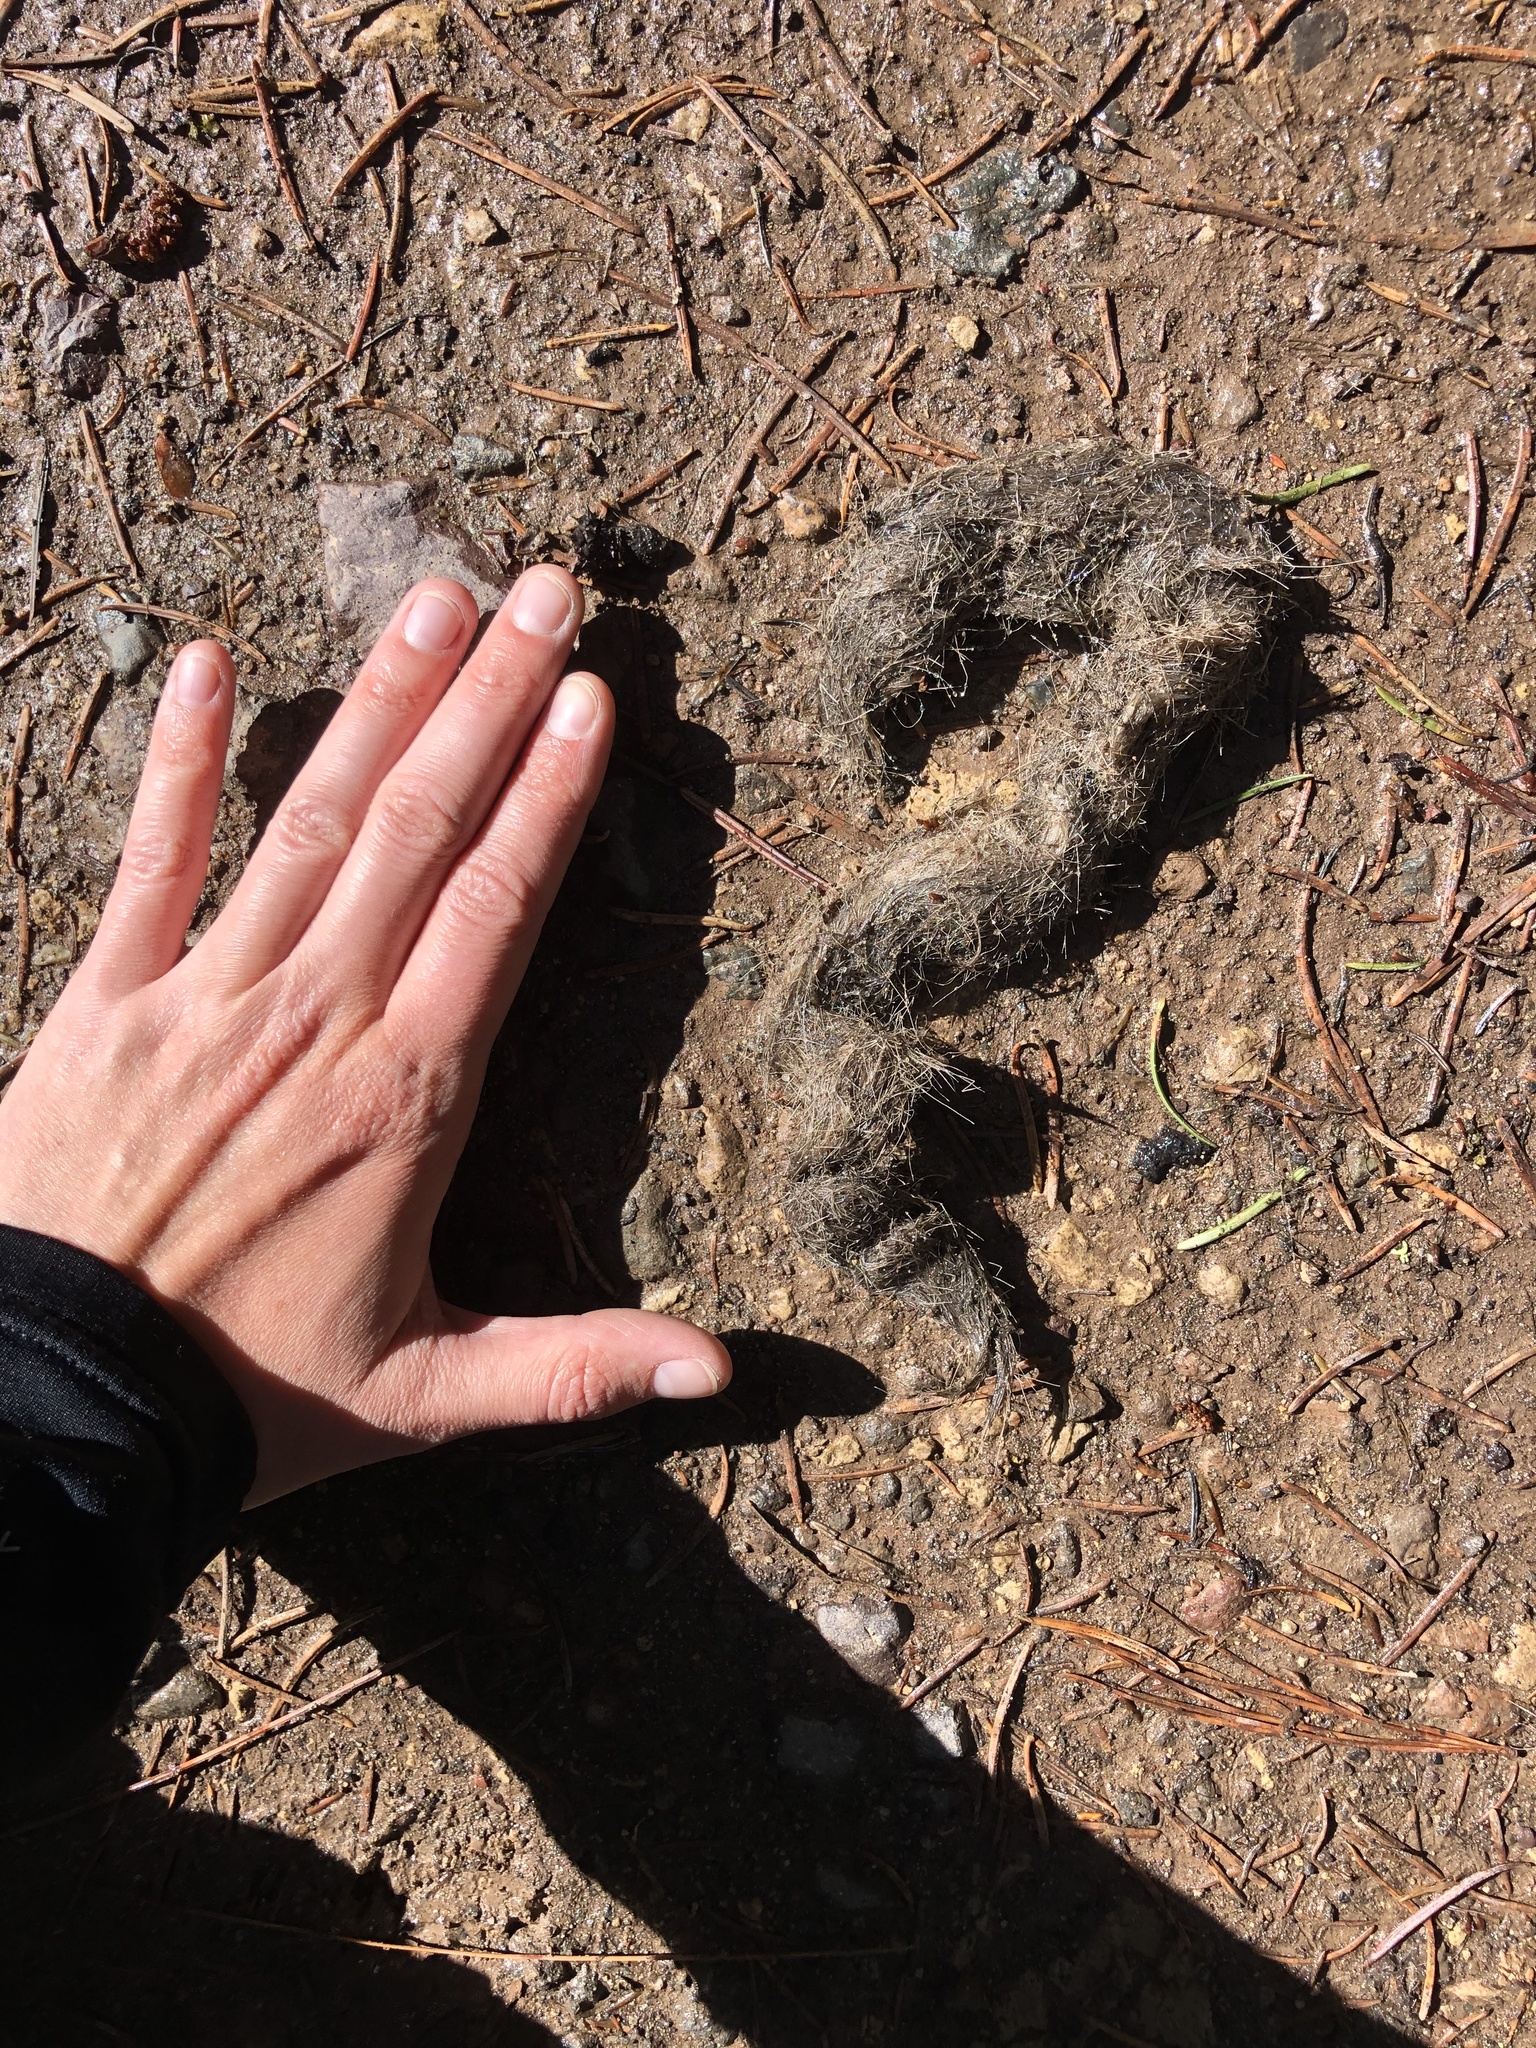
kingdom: Animalia
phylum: Chordata
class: Mammalia
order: Carnivora
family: Canidae
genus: Canis
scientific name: Canis latrans
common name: Coyote
